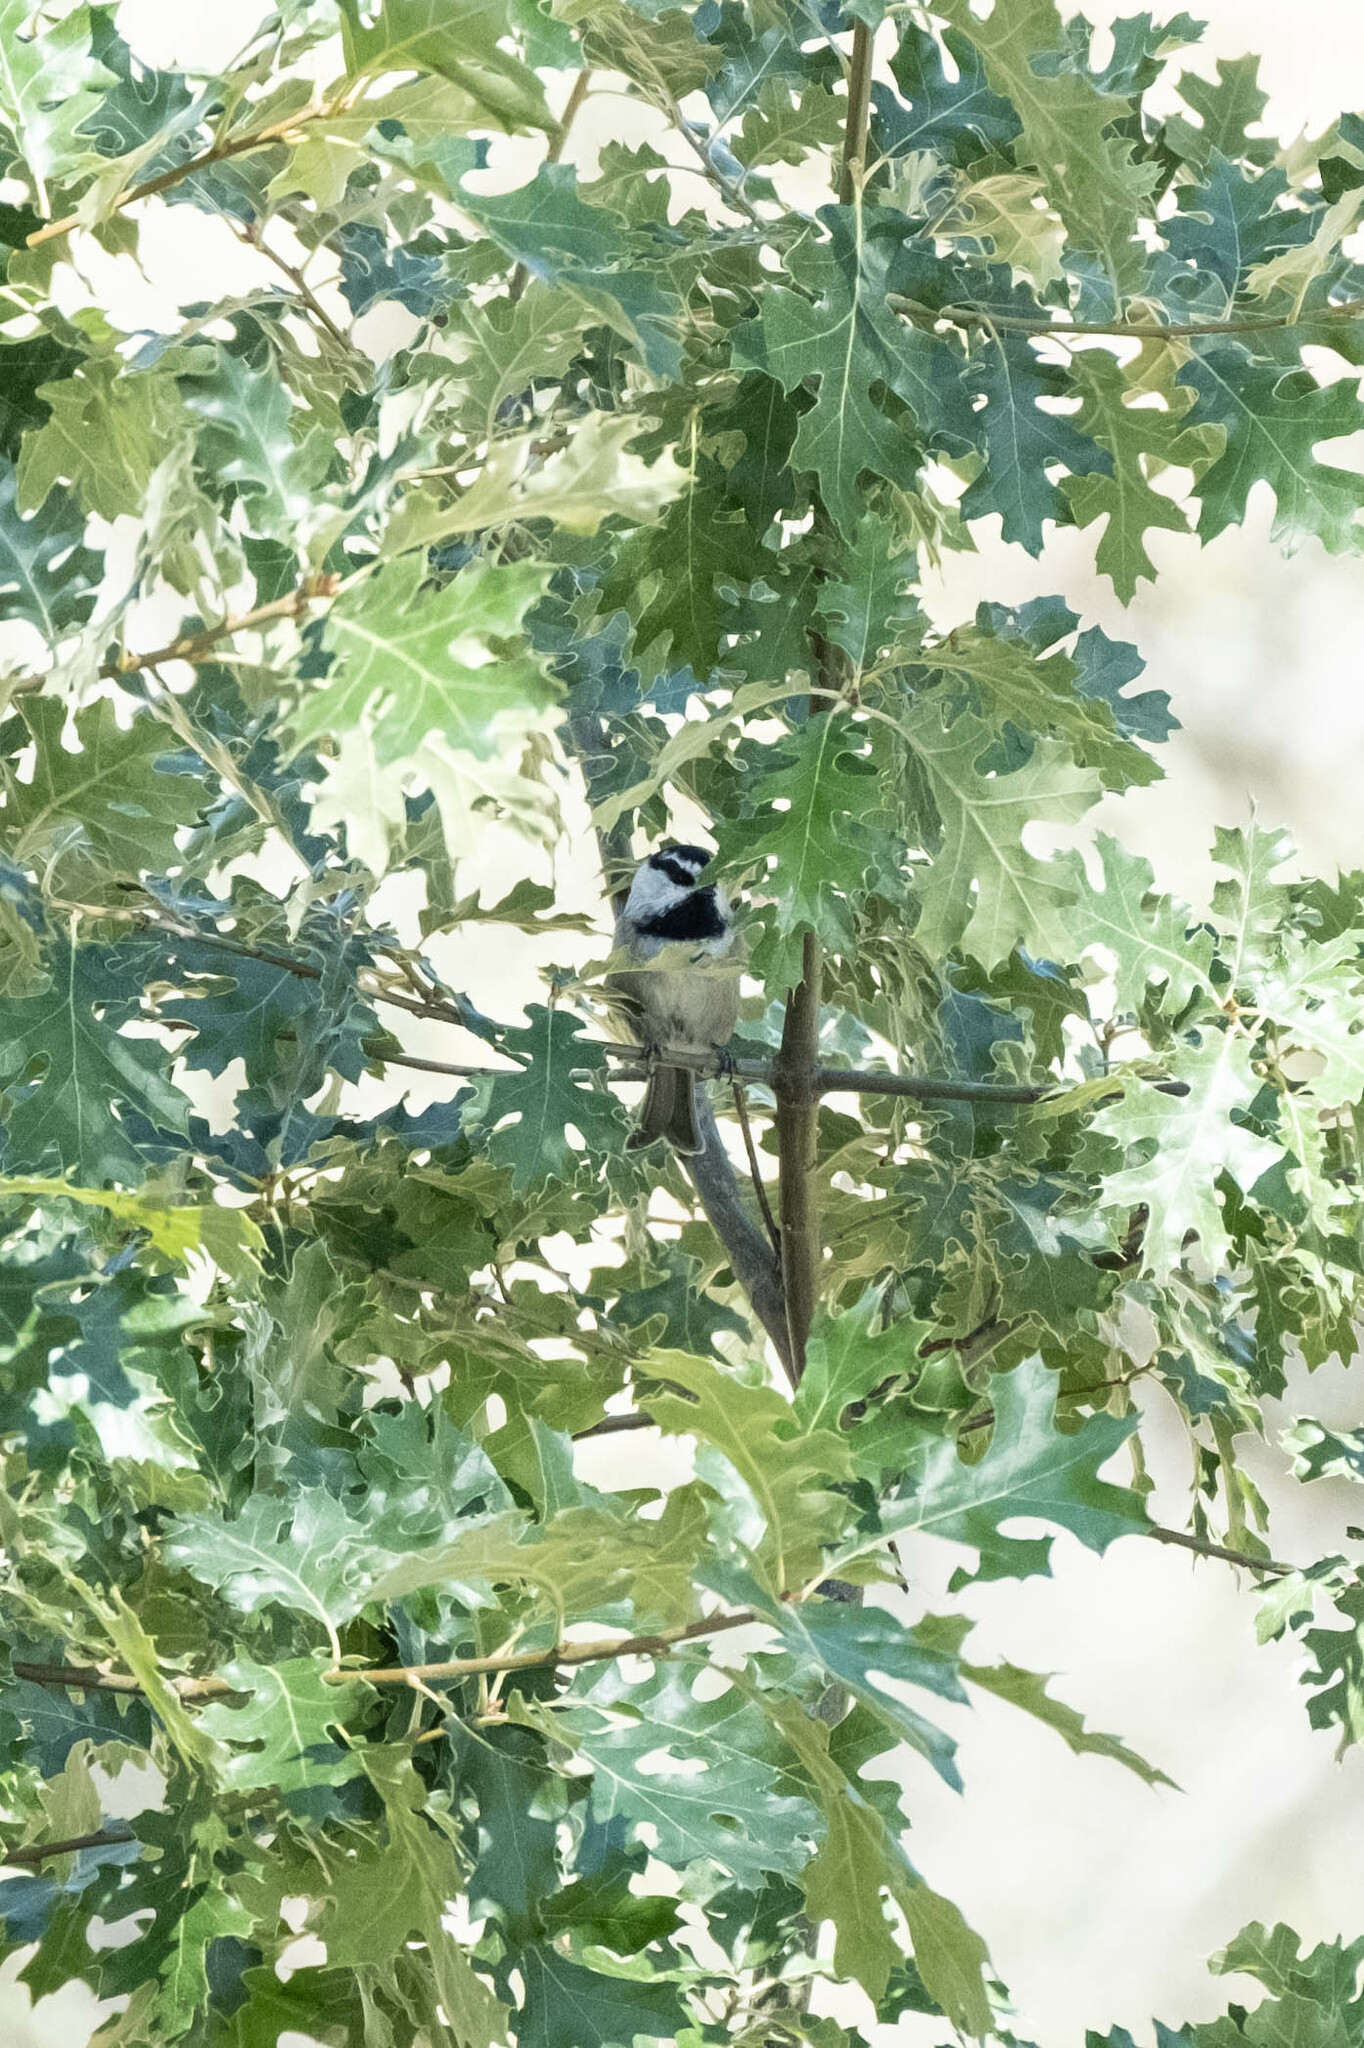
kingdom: Animalia
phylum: Chordata
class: Aves
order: Passeriformes
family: Paridae
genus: Poecile
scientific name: Poecile gambeli
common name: Mountain chickadee
